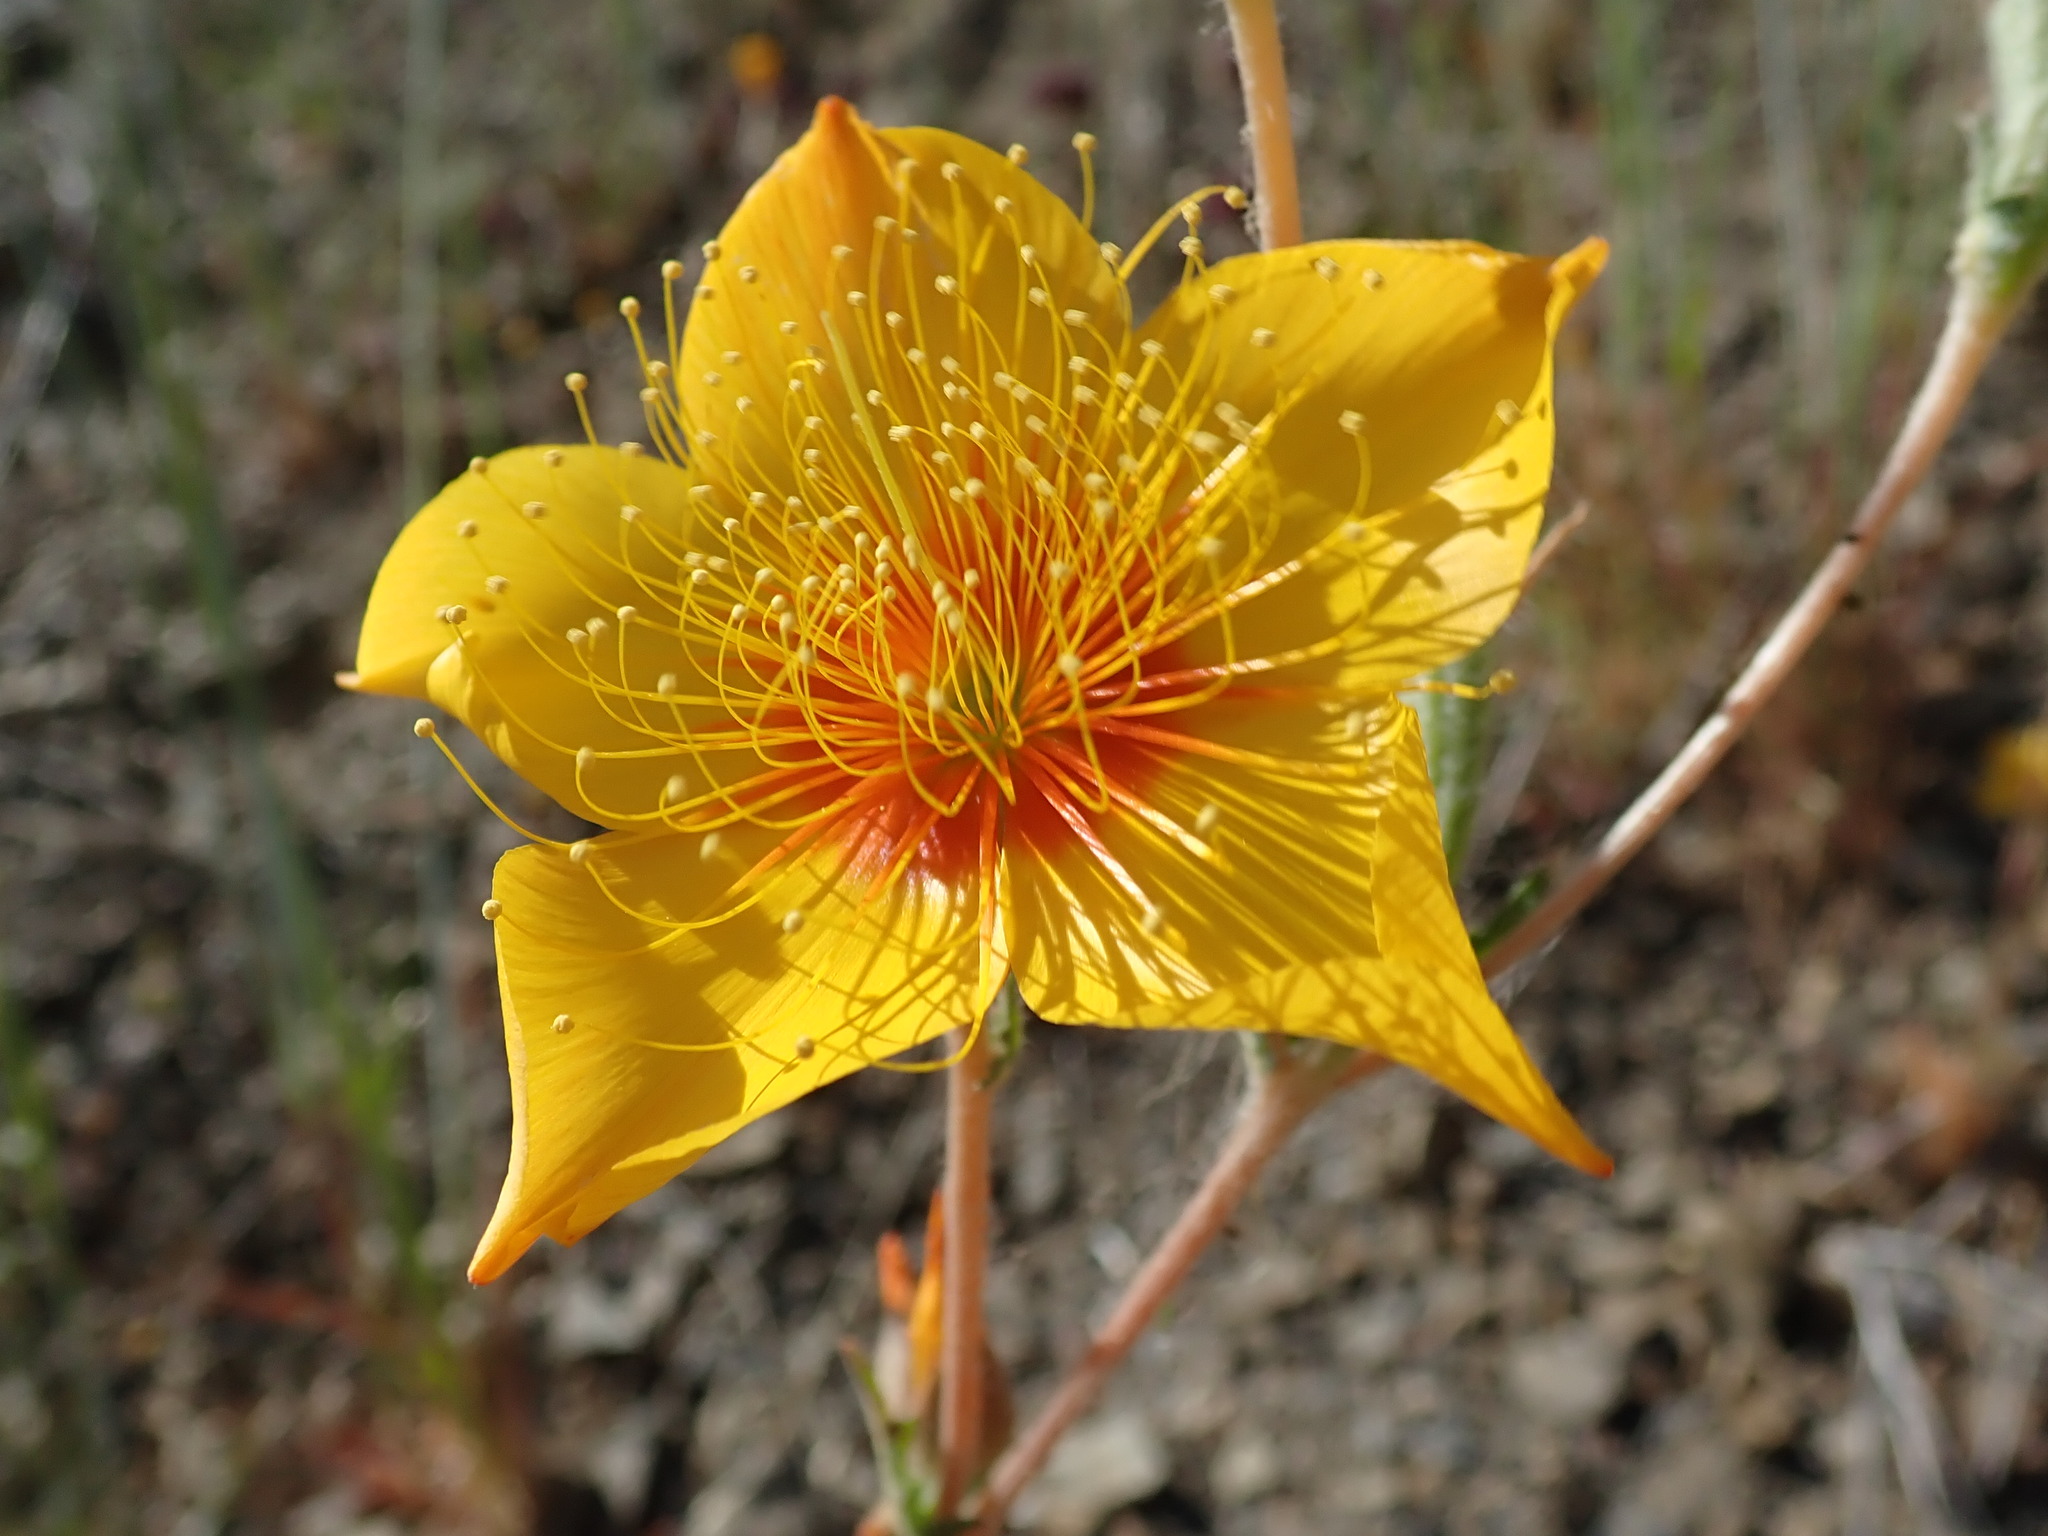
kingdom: Plantae
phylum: Tracheophyta
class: Magnoliopsida
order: Cornales
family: Loasaceae
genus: Mentzelia
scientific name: Mentzelia lindleyi
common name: Golden bartonia
